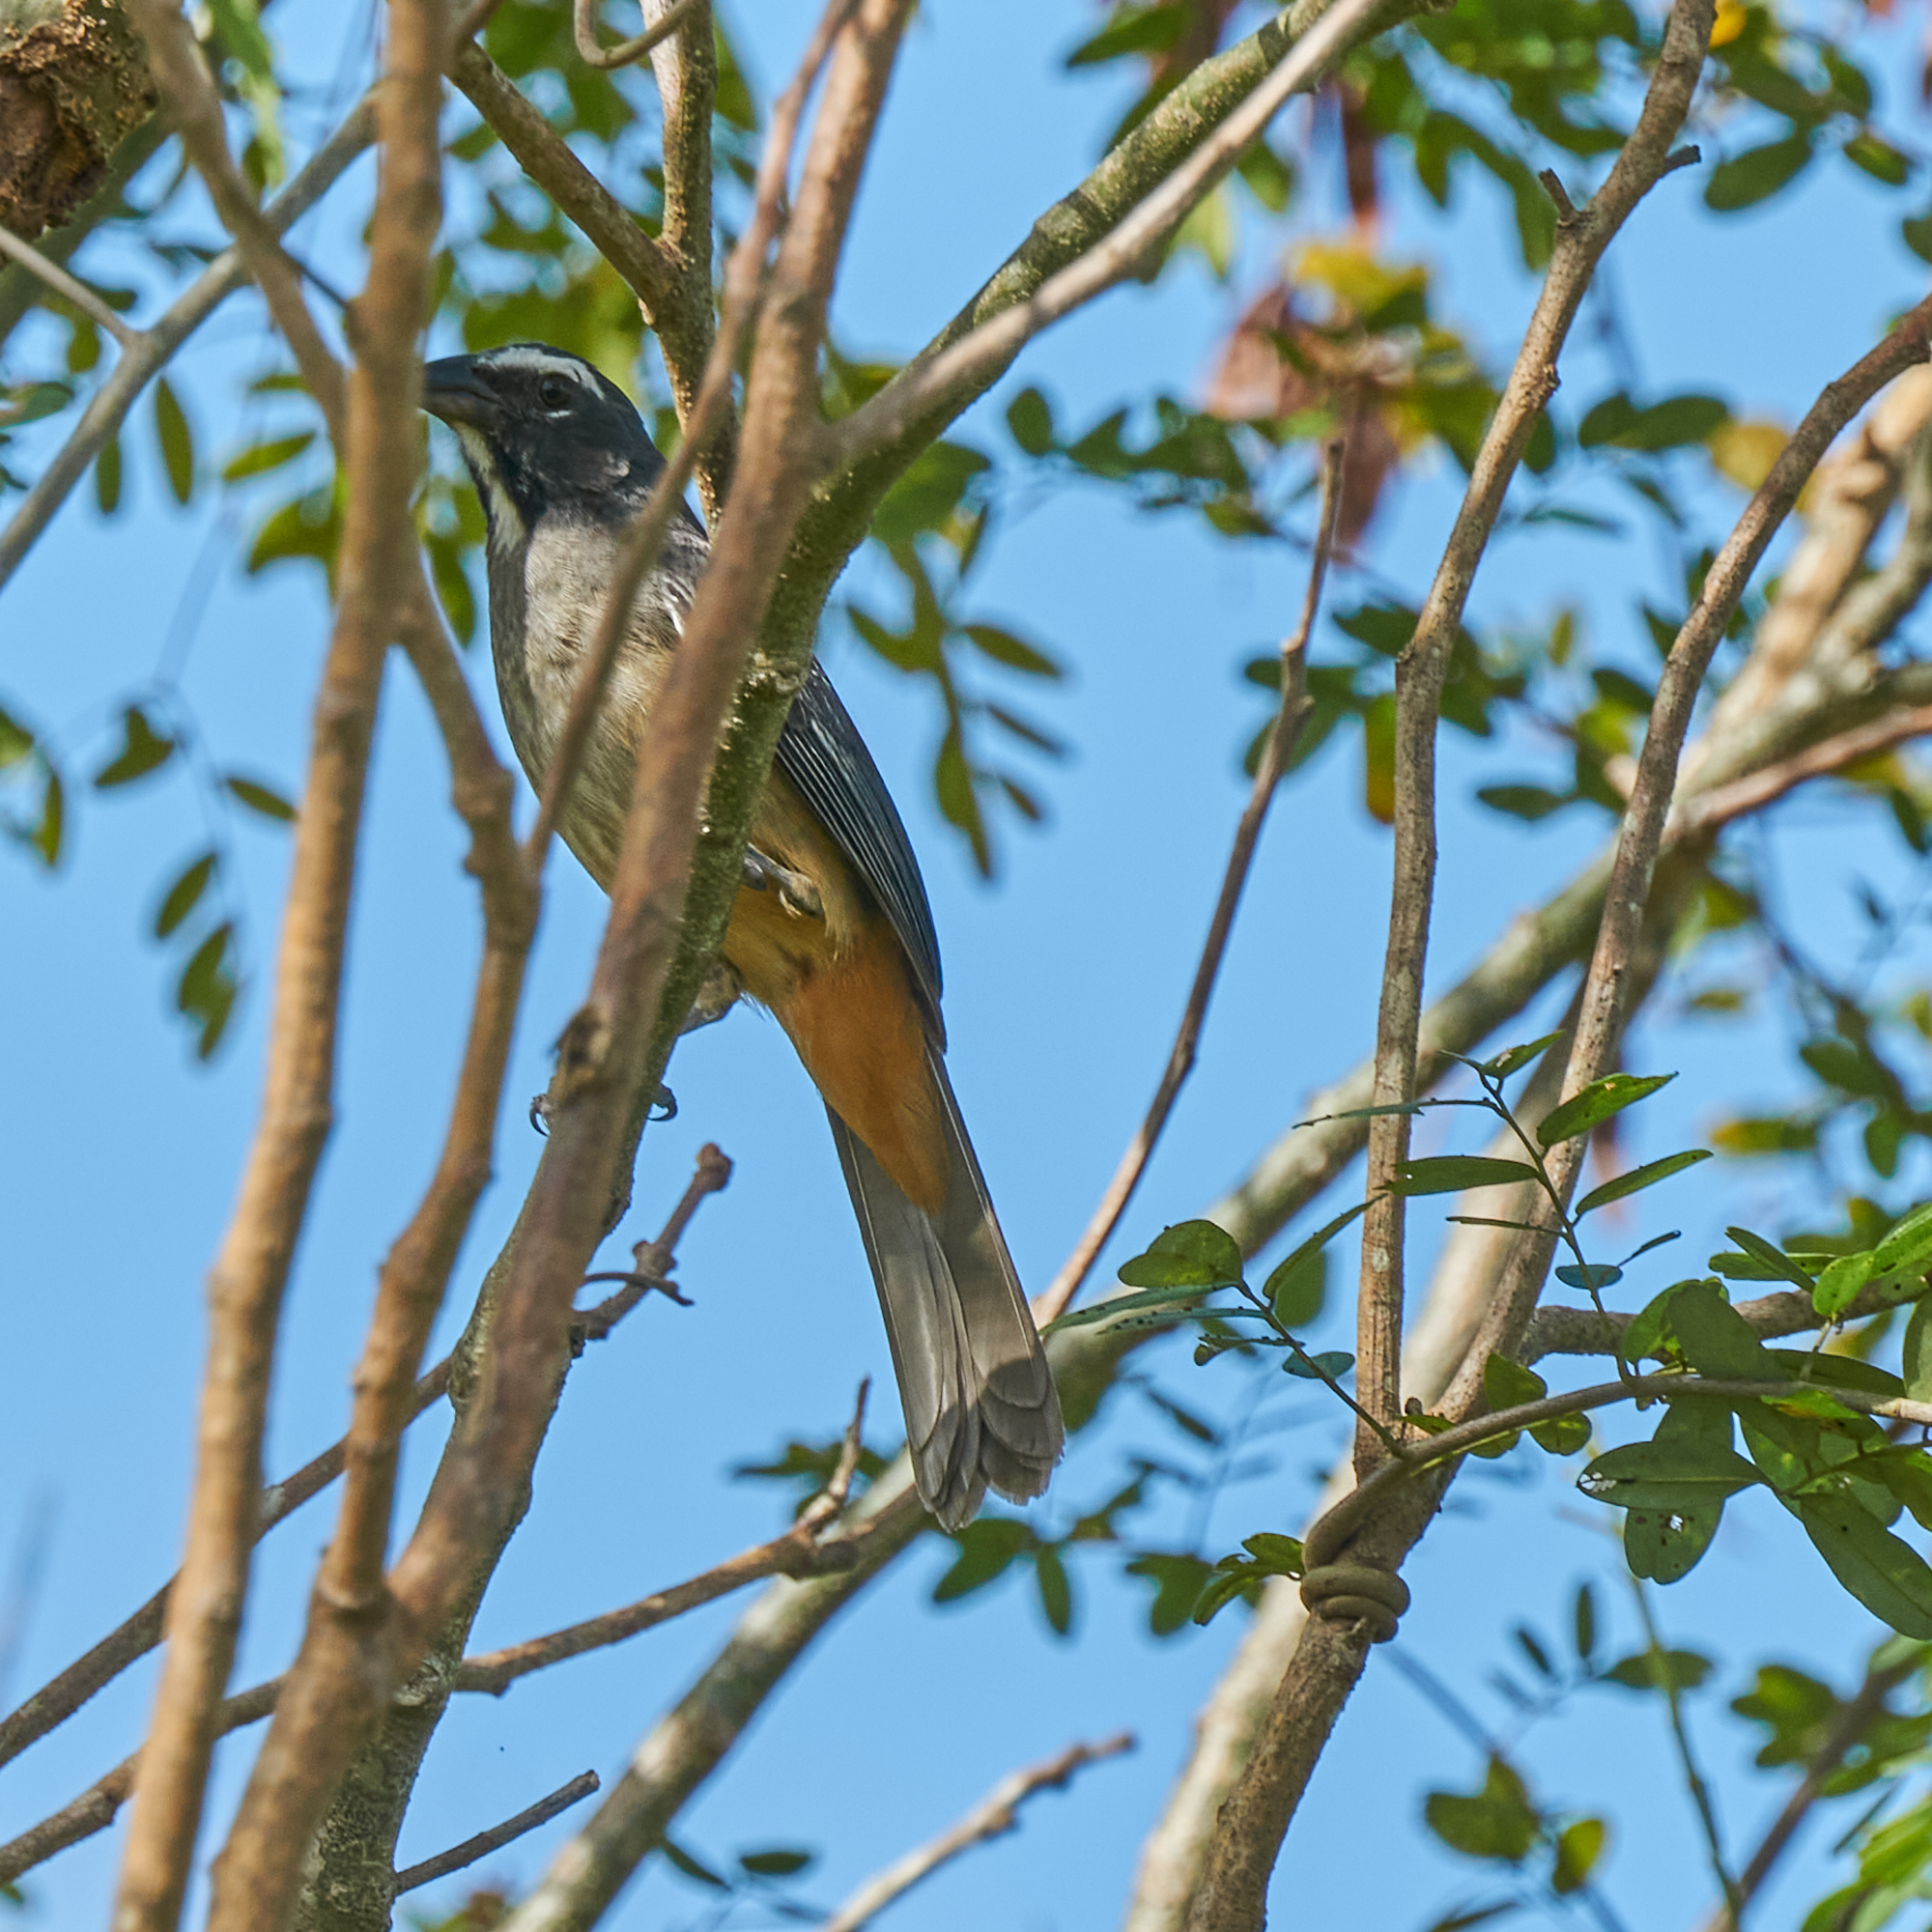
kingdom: Animalia
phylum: Chordata
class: Aves
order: Passeriformes
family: Thraupidae
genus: Saltator
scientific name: Saltator grandis
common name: Cinnamon-bellied saltator
